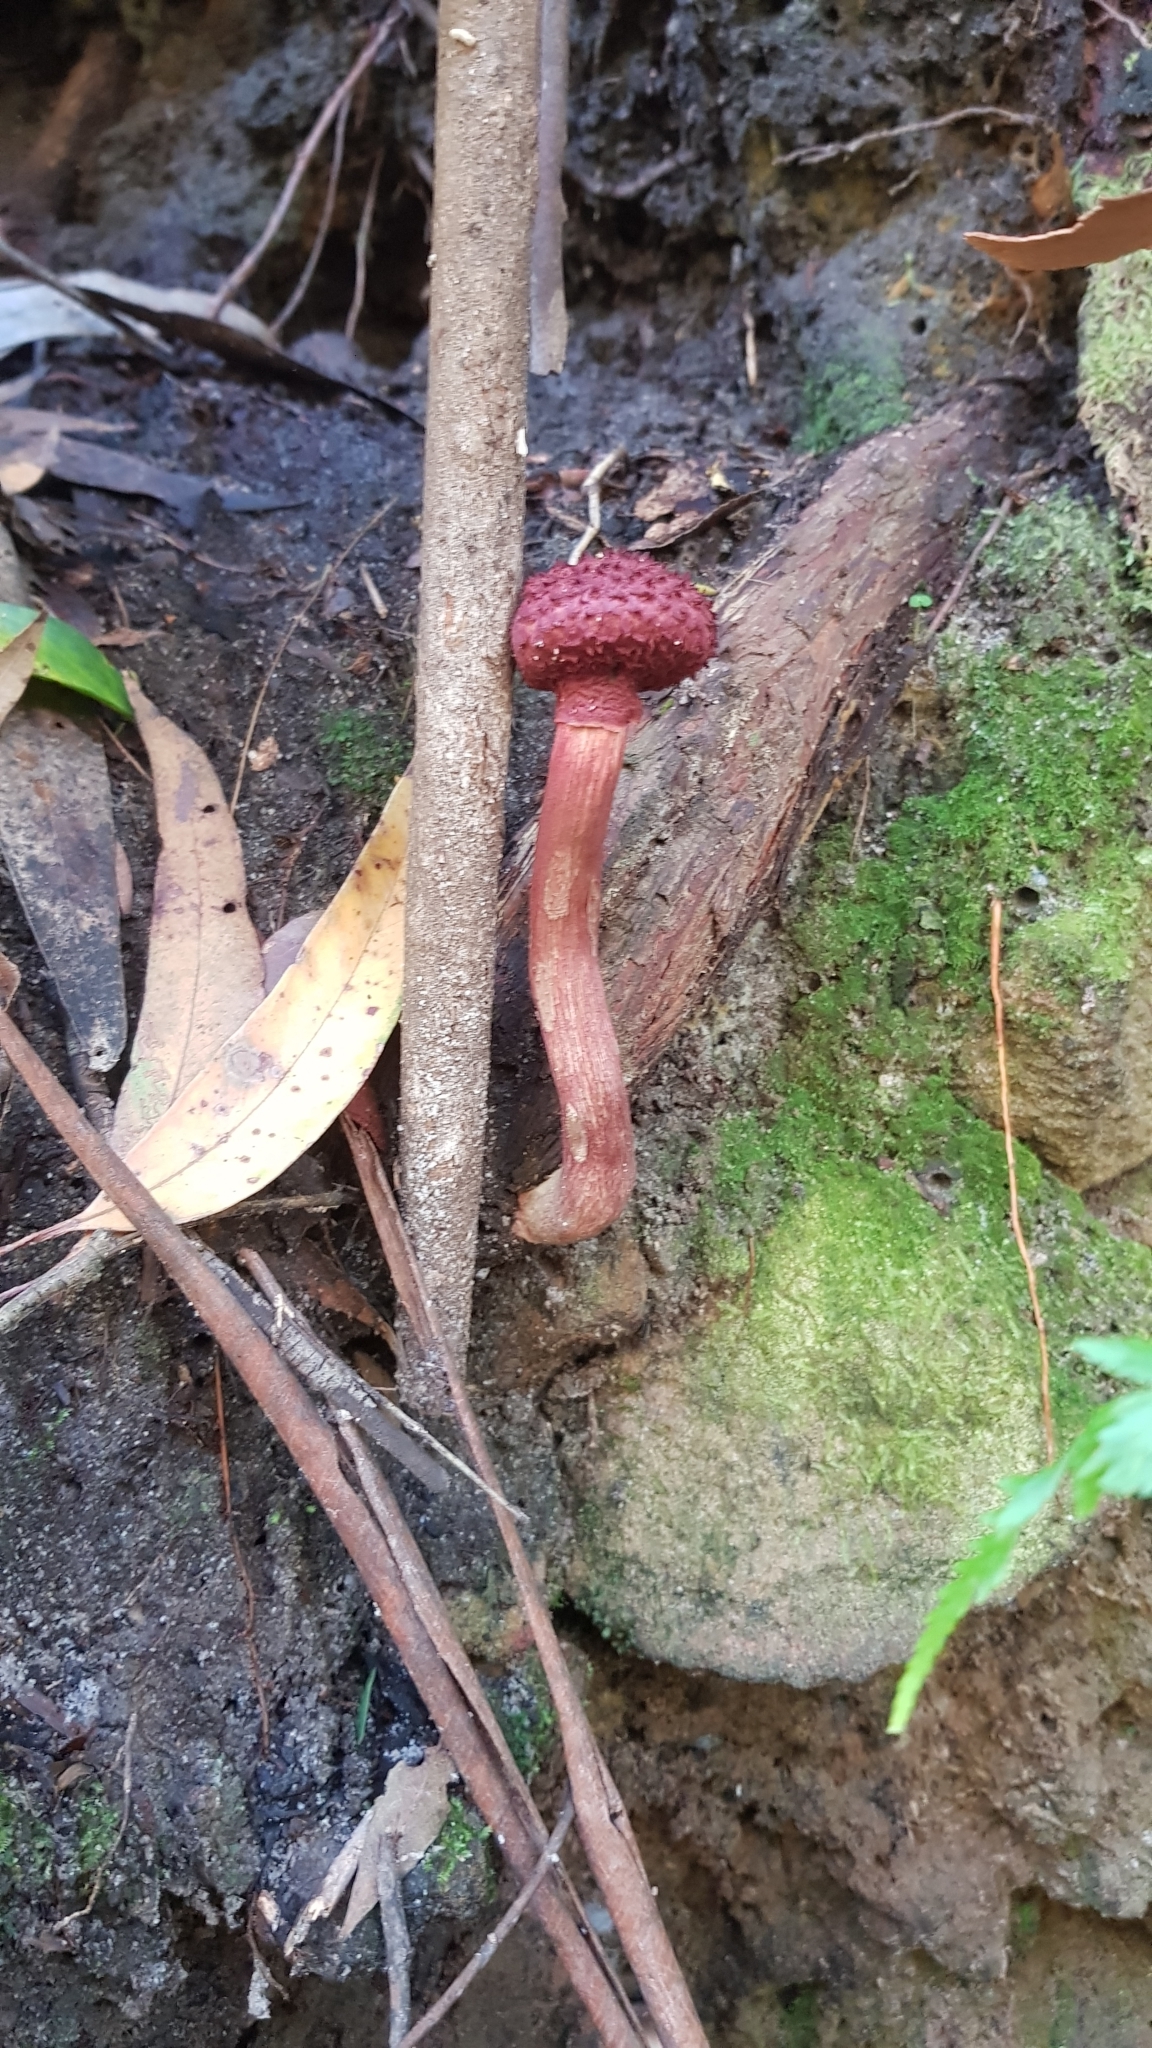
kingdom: Fungi
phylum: Basidiomycota
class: Agaricomycetes
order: Boletales
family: Boletaceae
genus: Boletellus
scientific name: Boletellus emodensis
